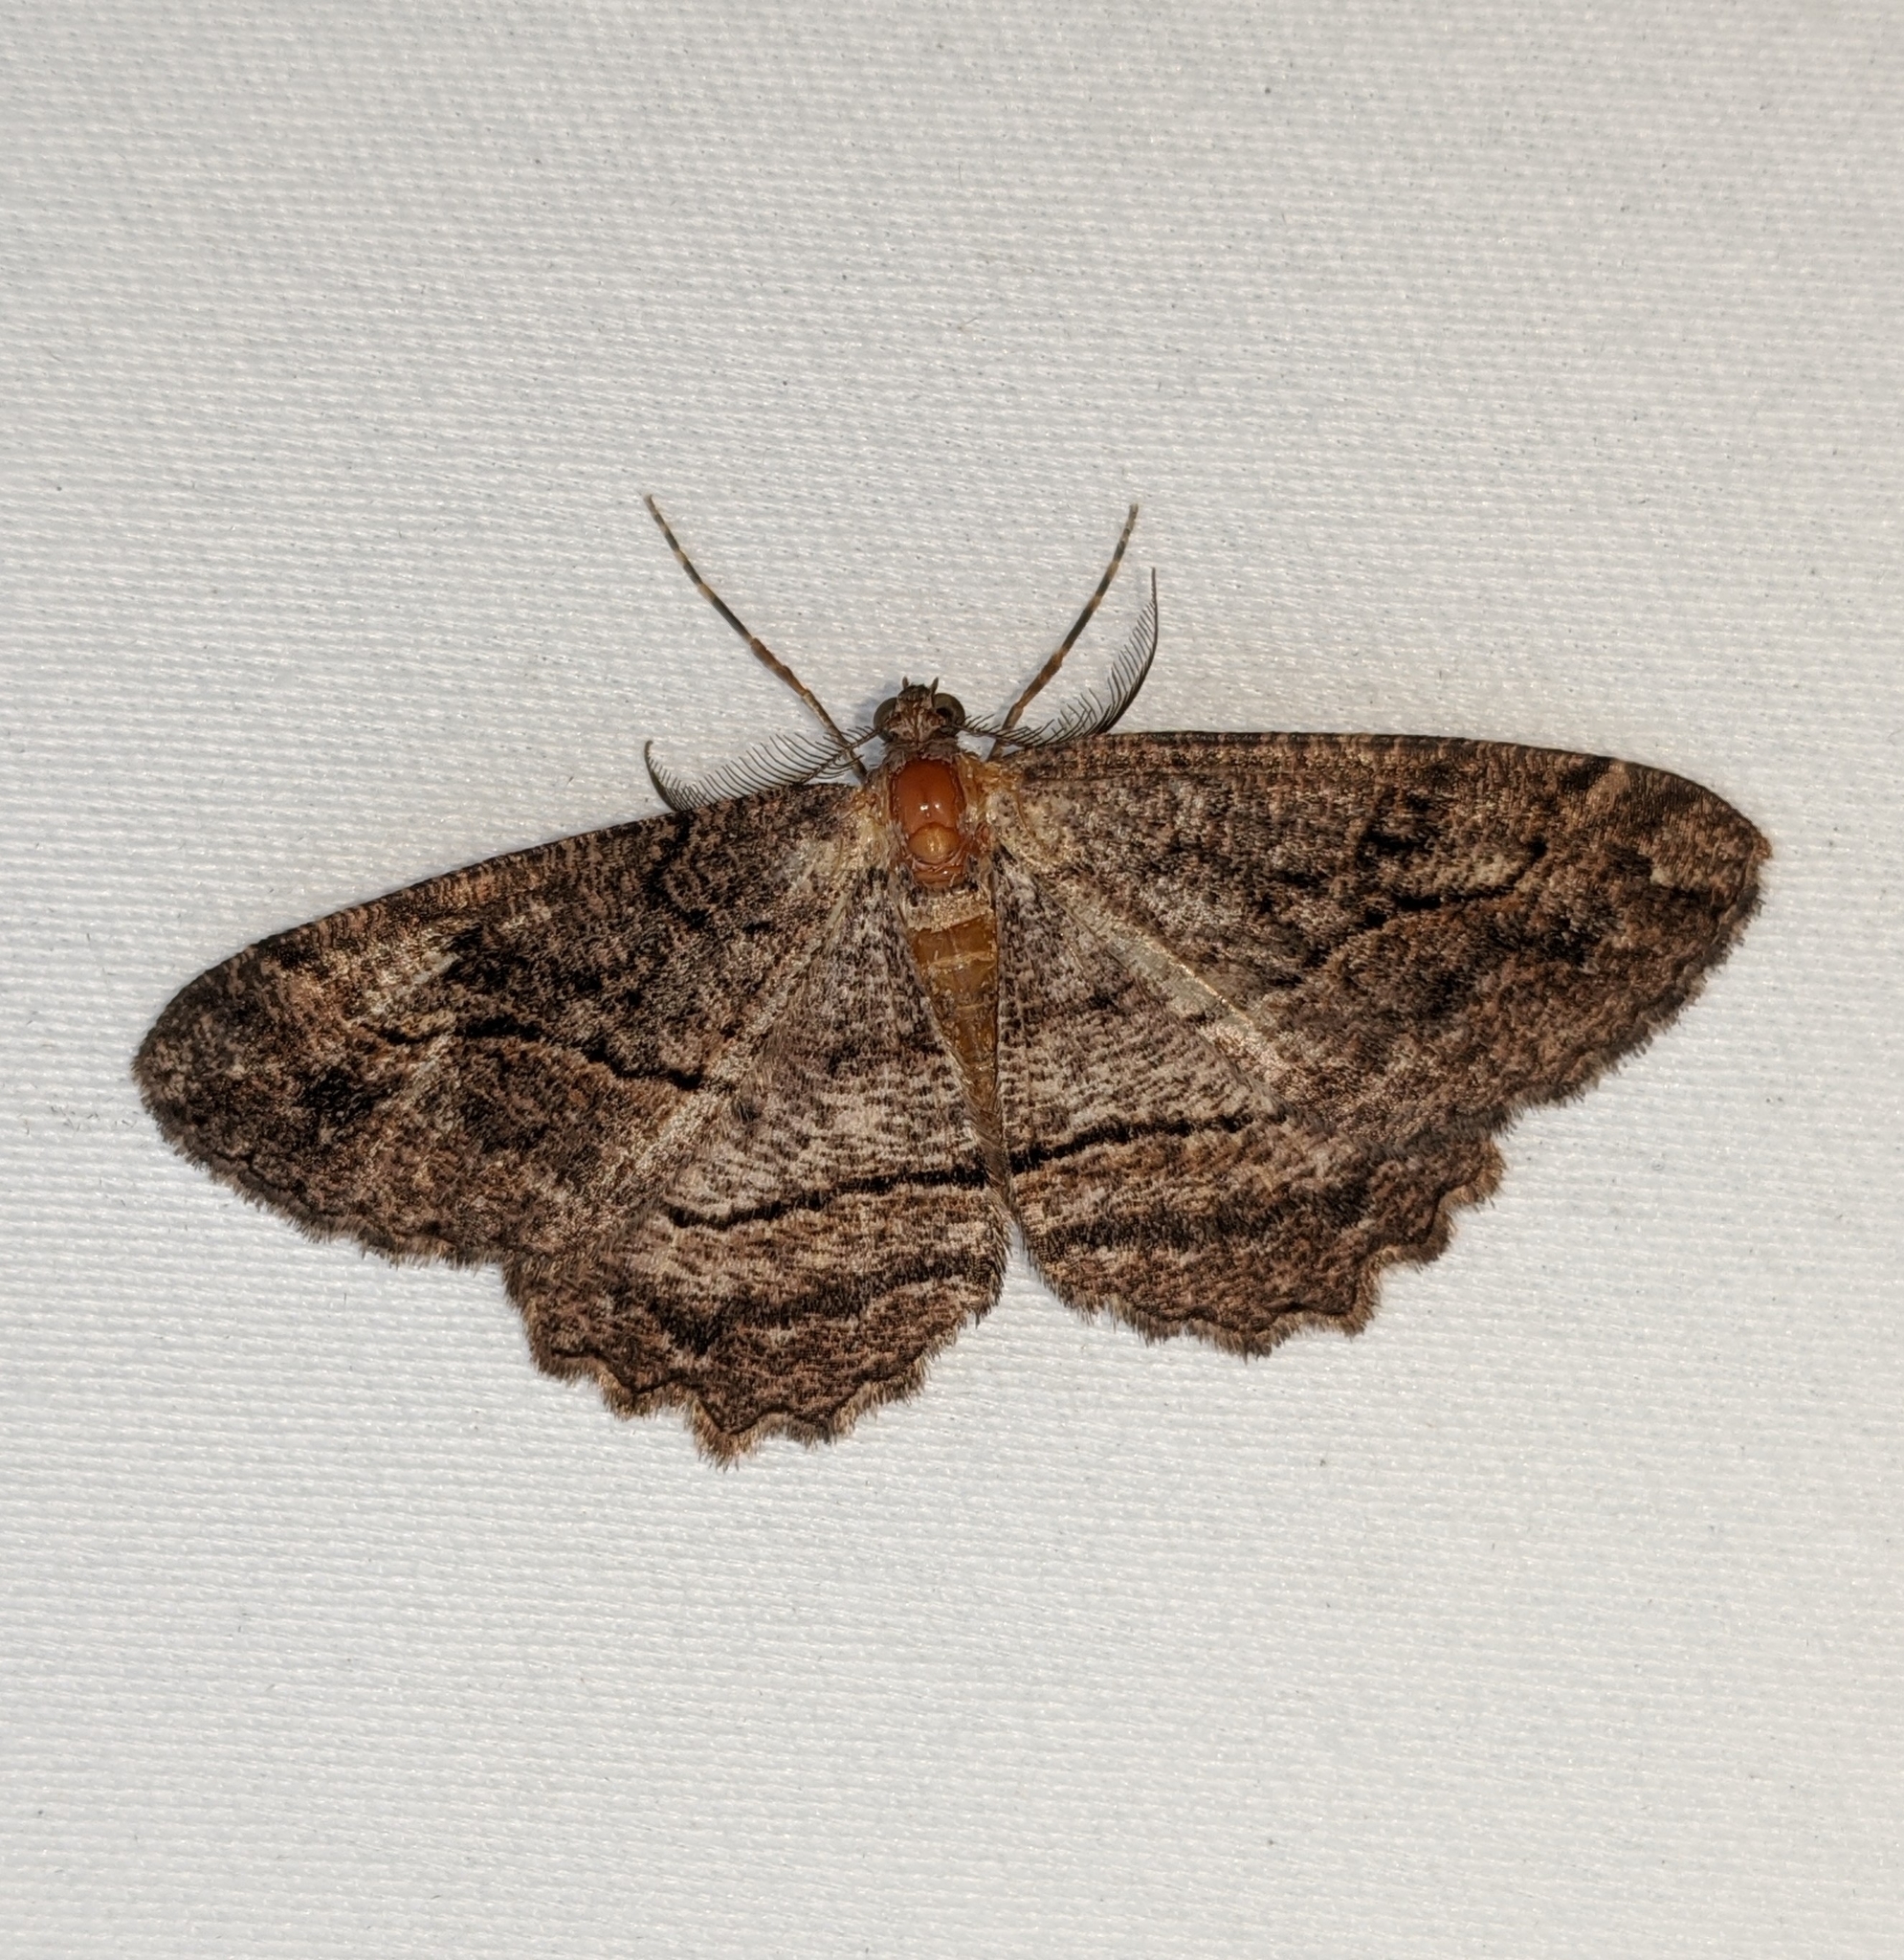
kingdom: Animalia
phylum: Arthropoda
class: Insecta
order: Lepidoptera
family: Geometridae
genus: Neoalcis
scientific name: Neoalcis californiaria
